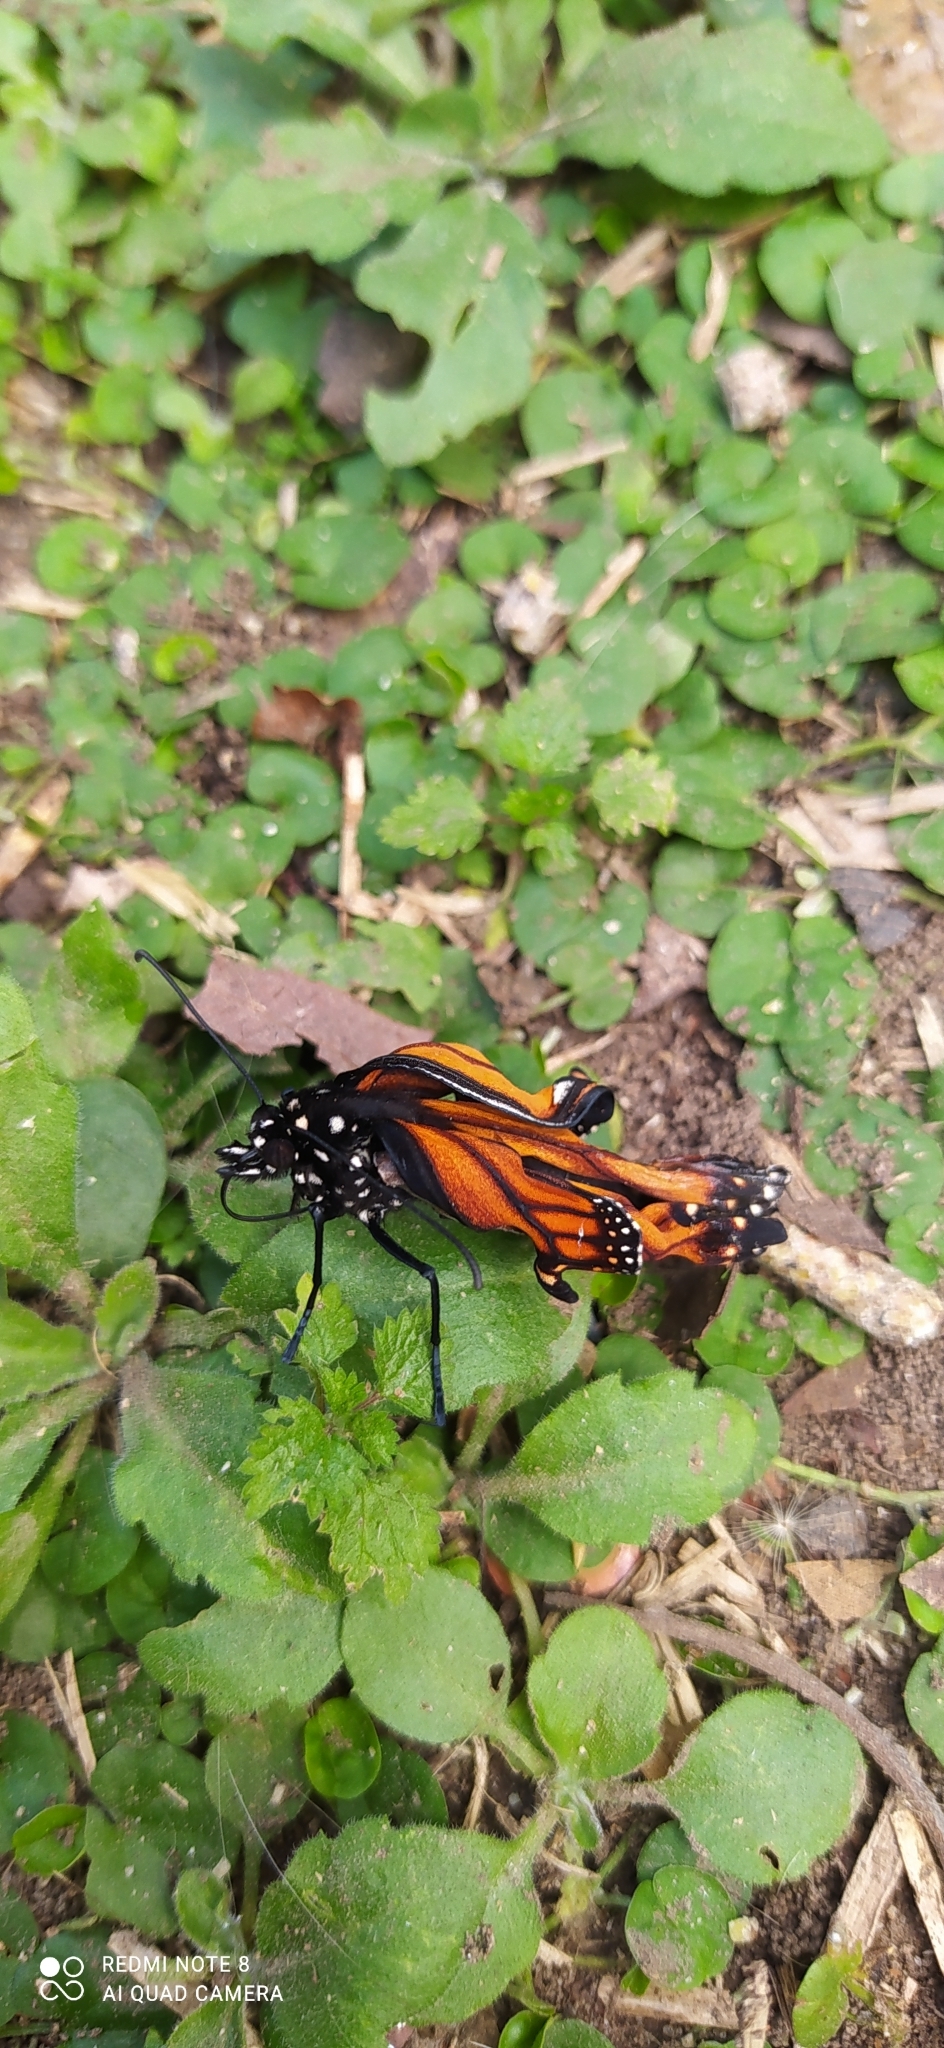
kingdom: Animalia
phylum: Arthropoda
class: Insecta
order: Lepidoptera
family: Nymphalidae
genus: Danaus
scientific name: Danaus erippus
